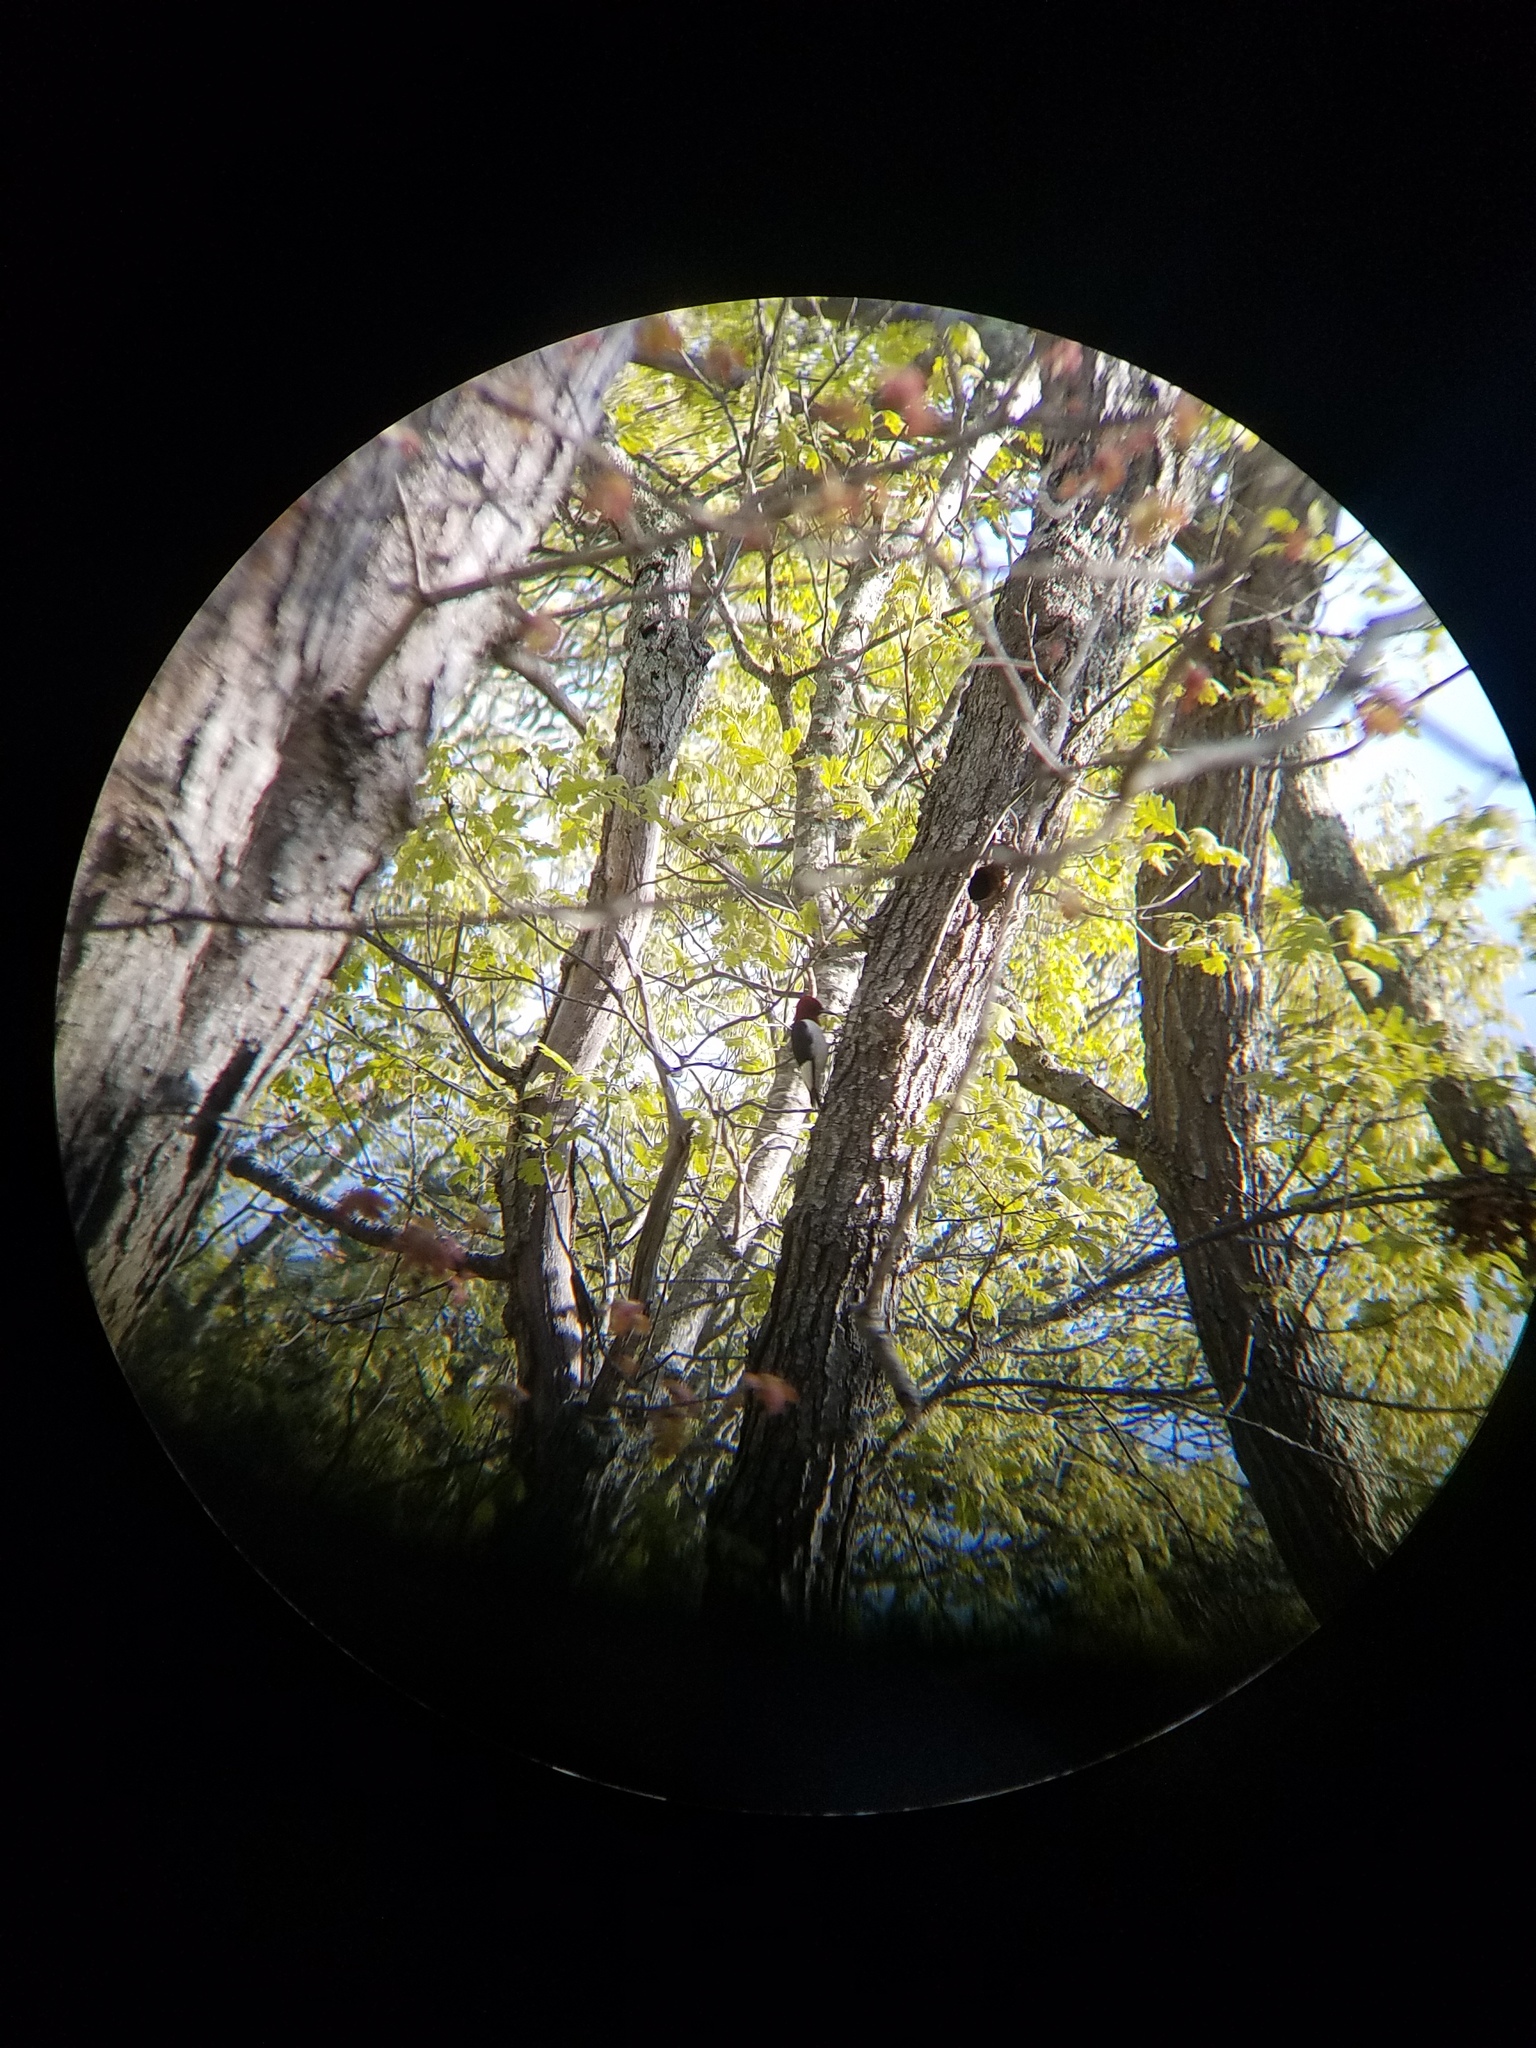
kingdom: Animalia
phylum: Chordata
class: Aves
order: Piciformes
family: Picidae
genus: Melanerpes
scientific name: Melanerpes erythrocephalus
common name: Red-headed woodpecker
